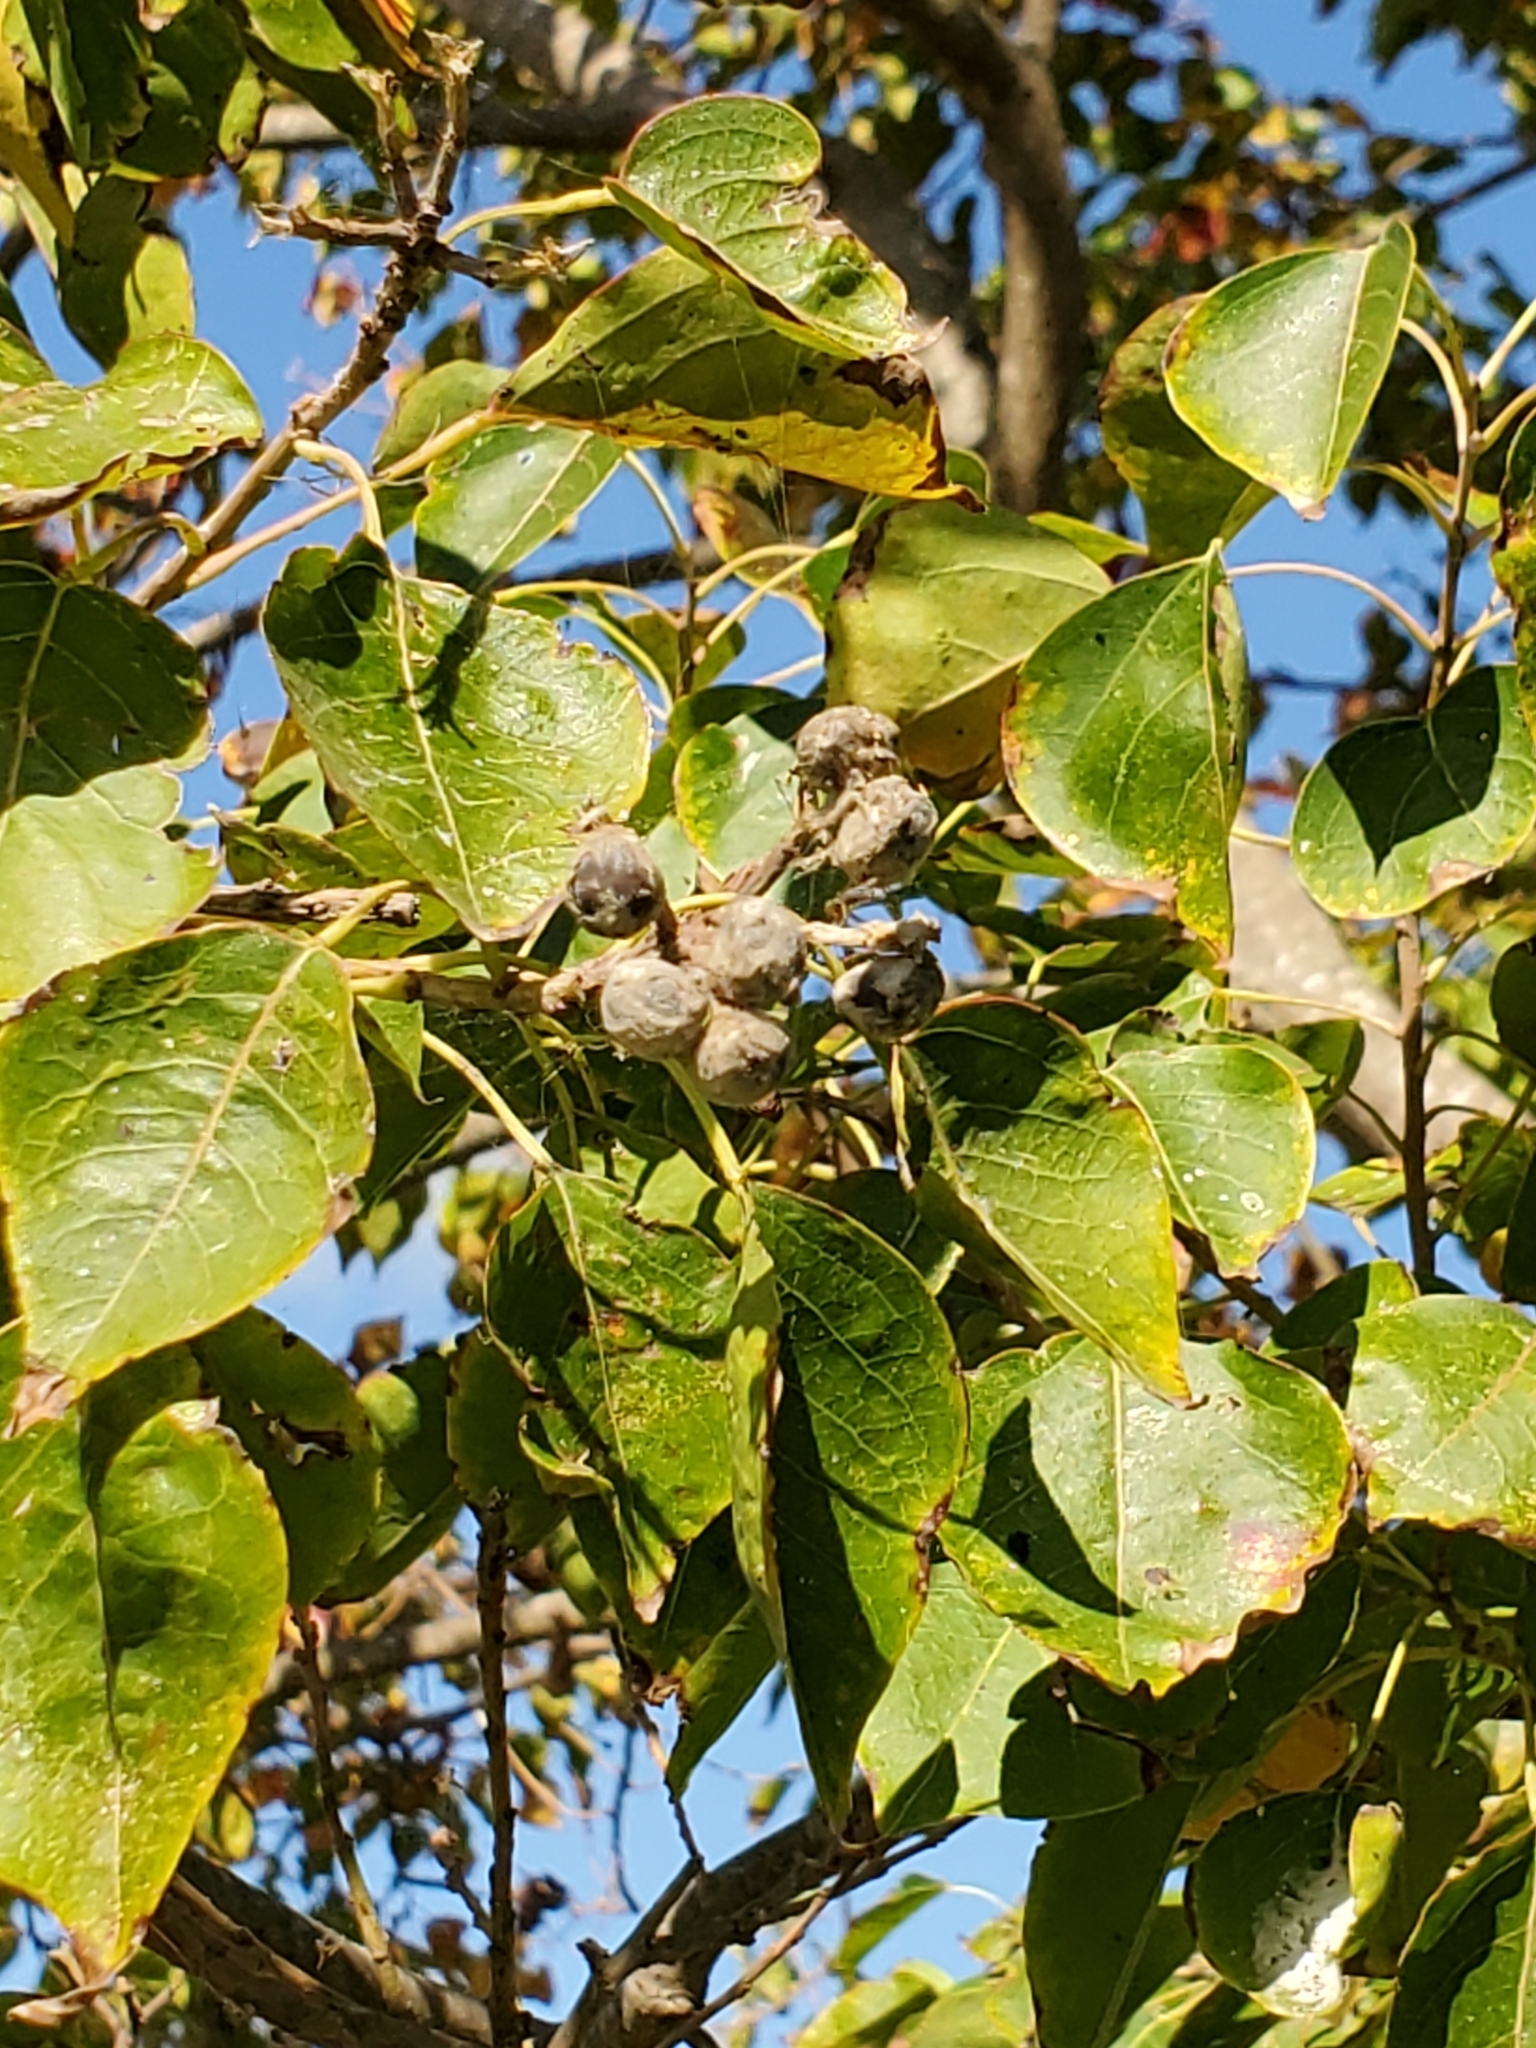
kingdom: Plantae
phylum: Tracheophyta
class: Magnoliopsida
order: Malpighiales
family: Euphorbiaceae
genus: Triadica
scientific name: Triadica sebifera
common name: Chinese tallow
